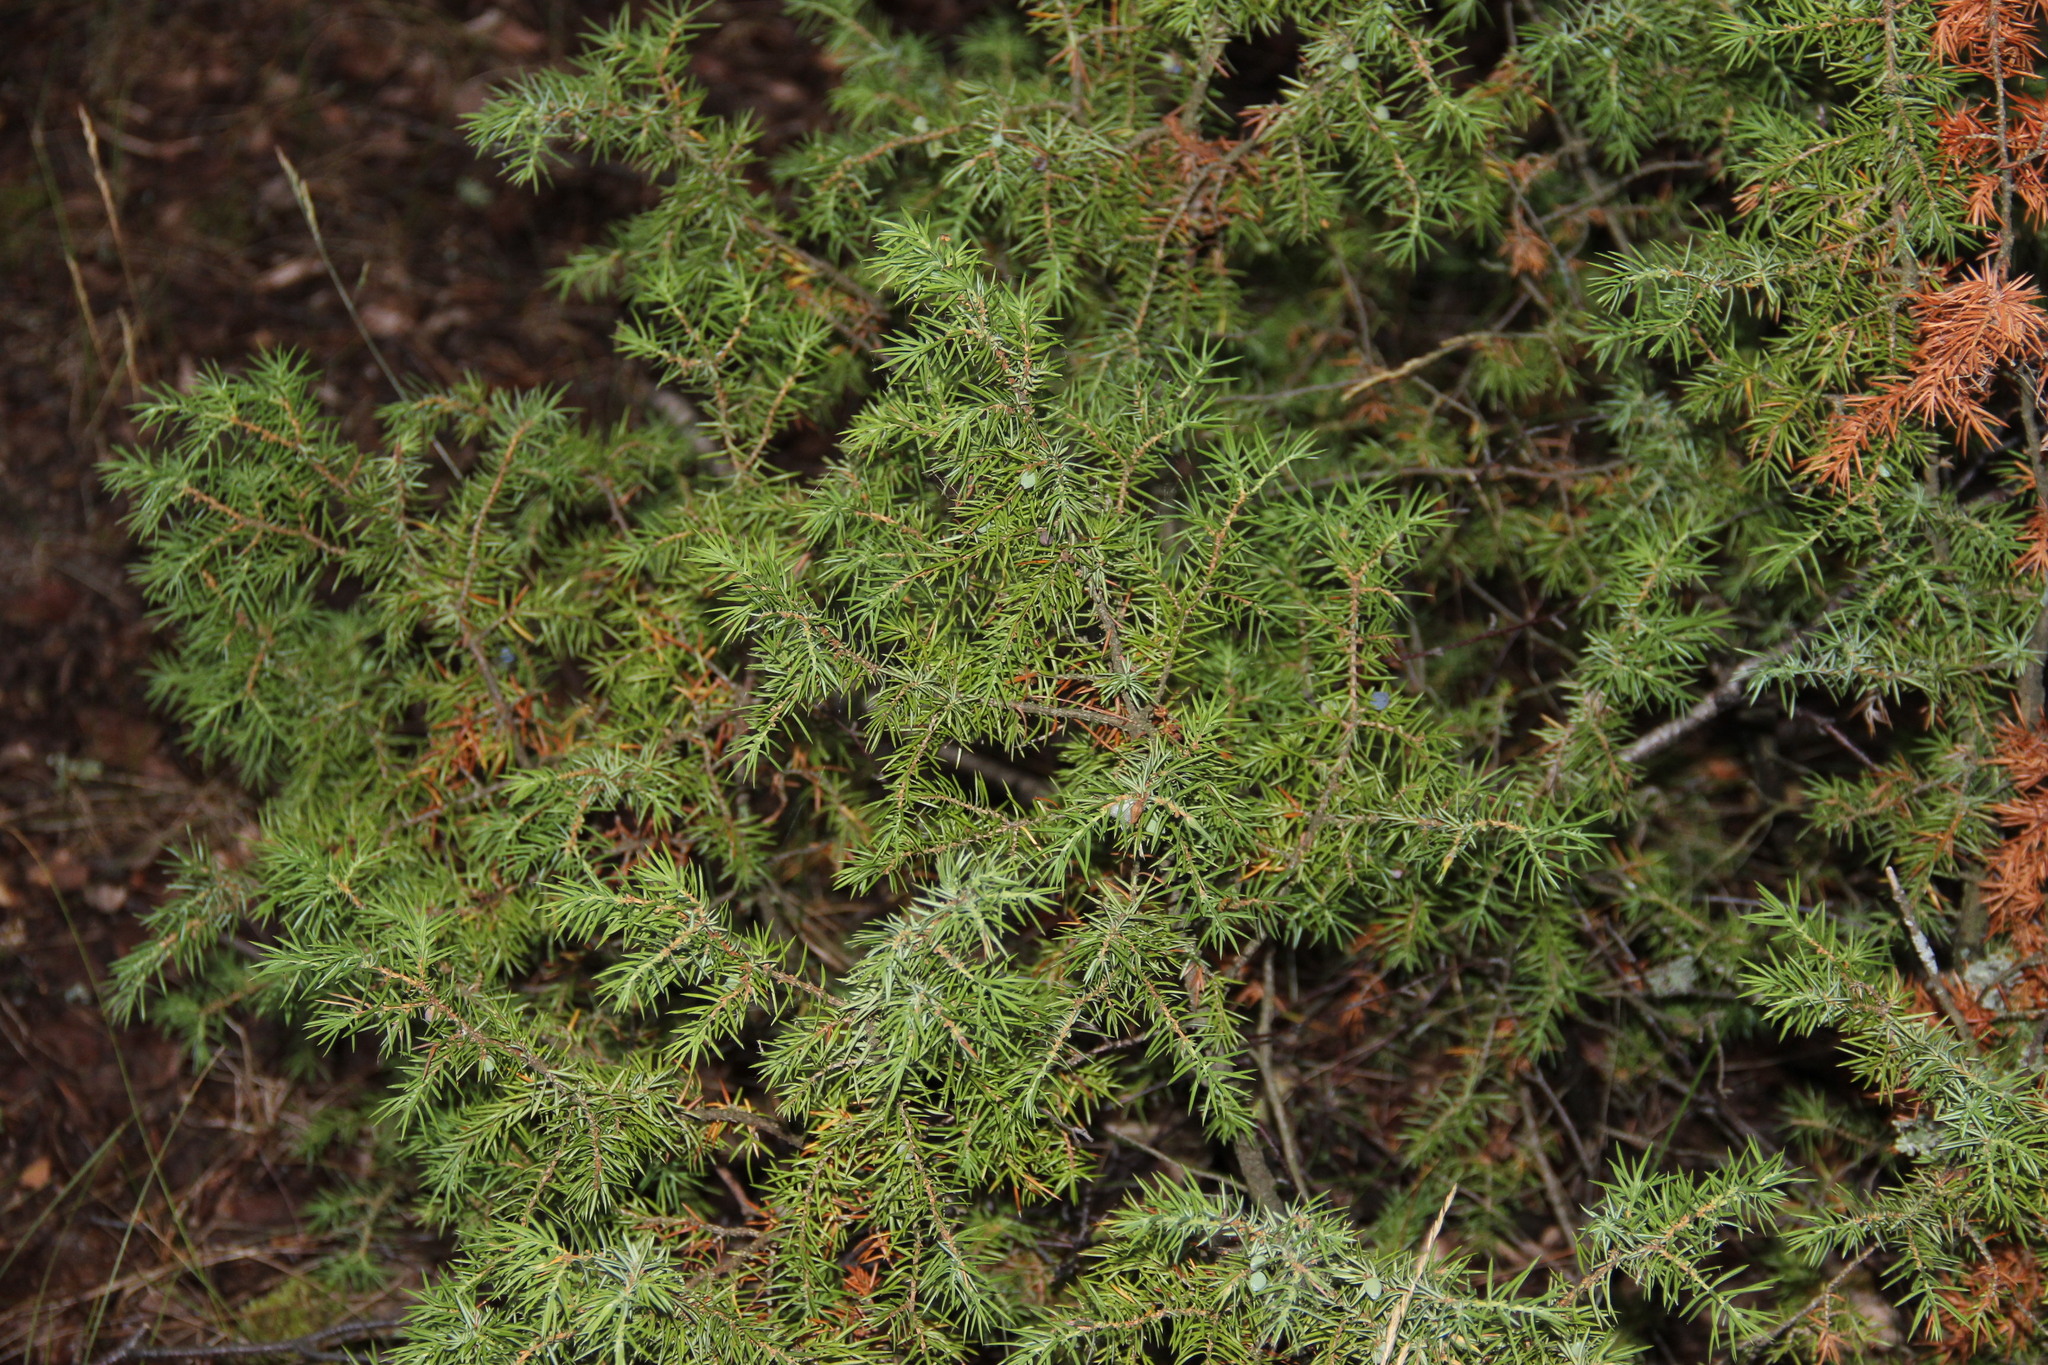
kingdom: Plantae
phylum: Tracheophyta
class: Pinopsida
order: Pinales
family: Cupressaceae
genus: Juniperus
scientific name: Juniperus communis
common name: Common juniper
